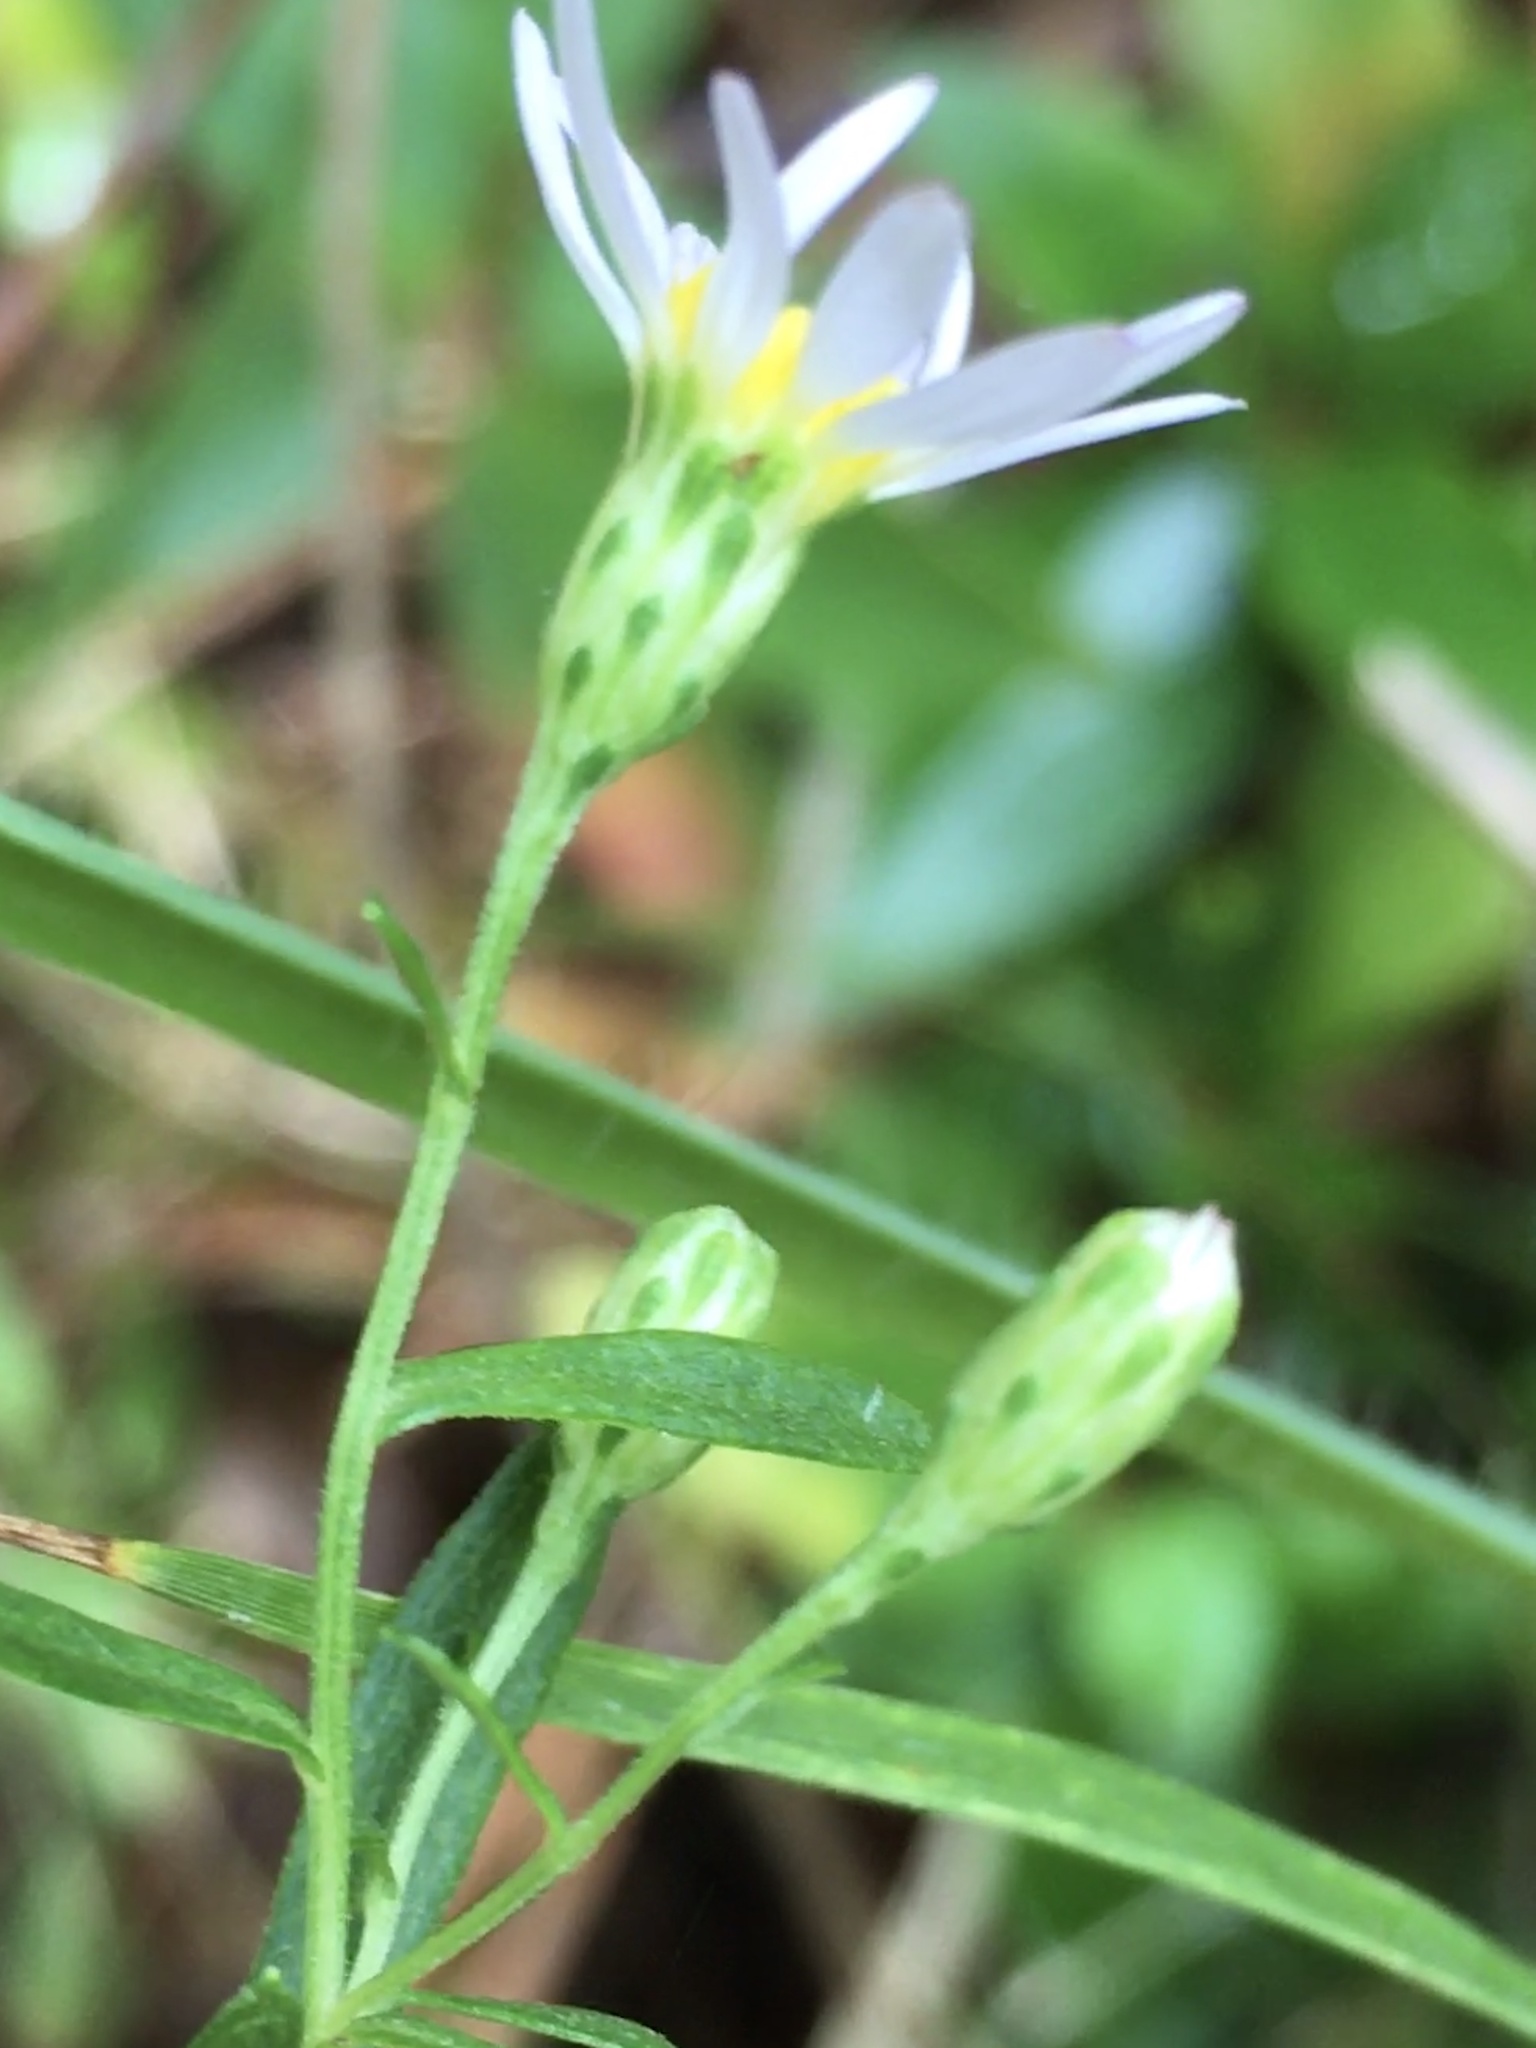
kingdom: Plantae
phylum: Tracheophyta
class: Magnoliopsida
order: Asterales
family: Asteraceae
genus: Symphyotrichum
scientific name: Symphyotrichum dumosum
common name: Bushy aster
